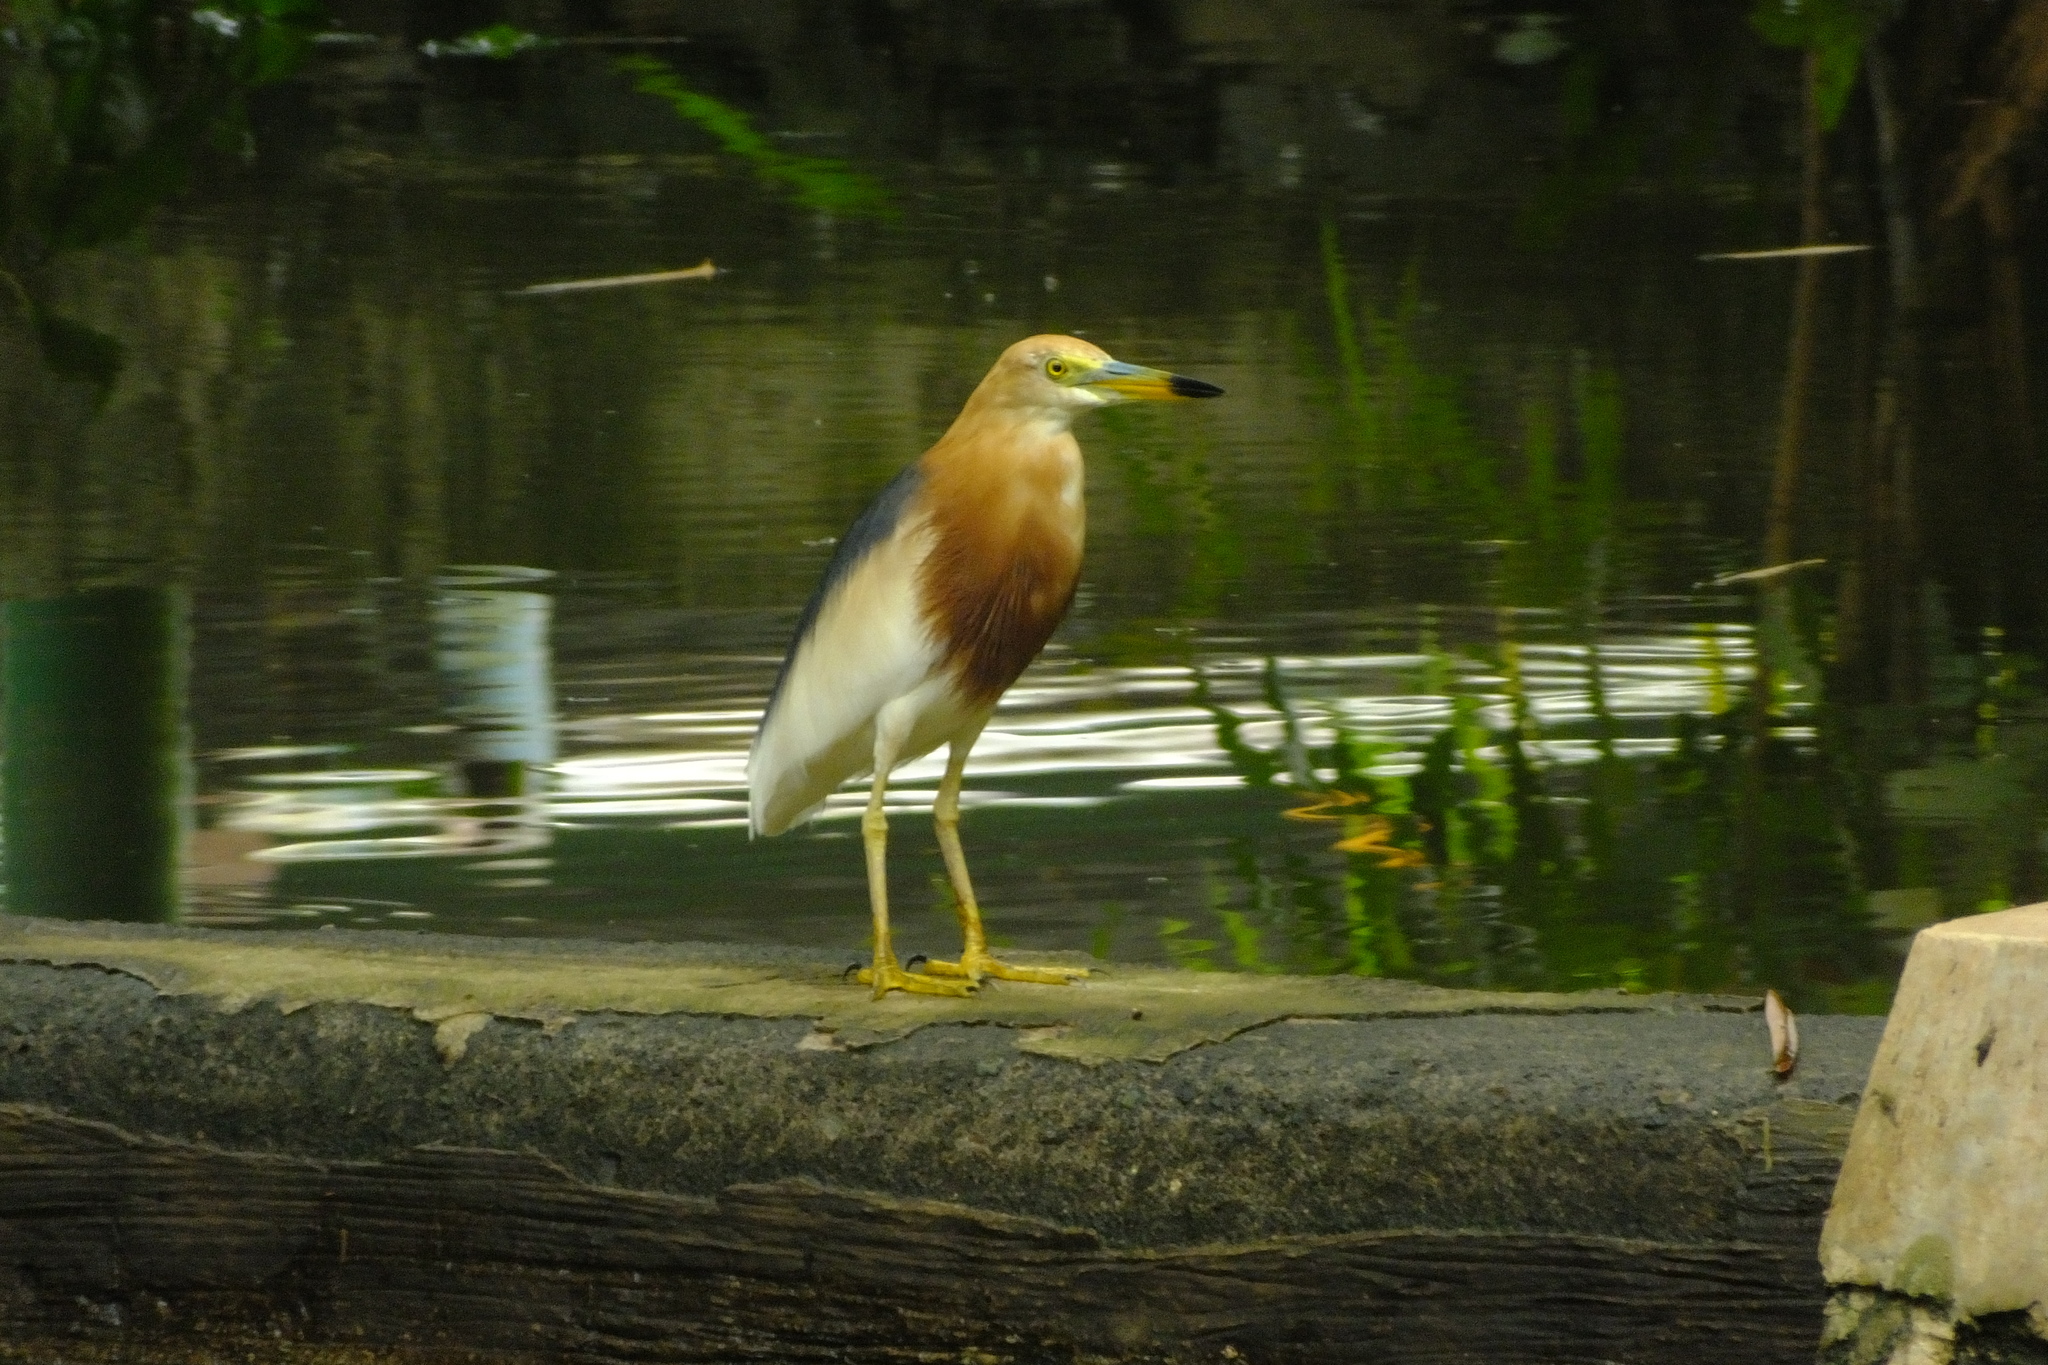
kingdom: Animalia
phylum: Chordata
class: Aves
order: Pelecaniformes
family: Ardeidae
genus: Ardeola
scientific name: Ardeola speciosa
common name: Javan pond heron
